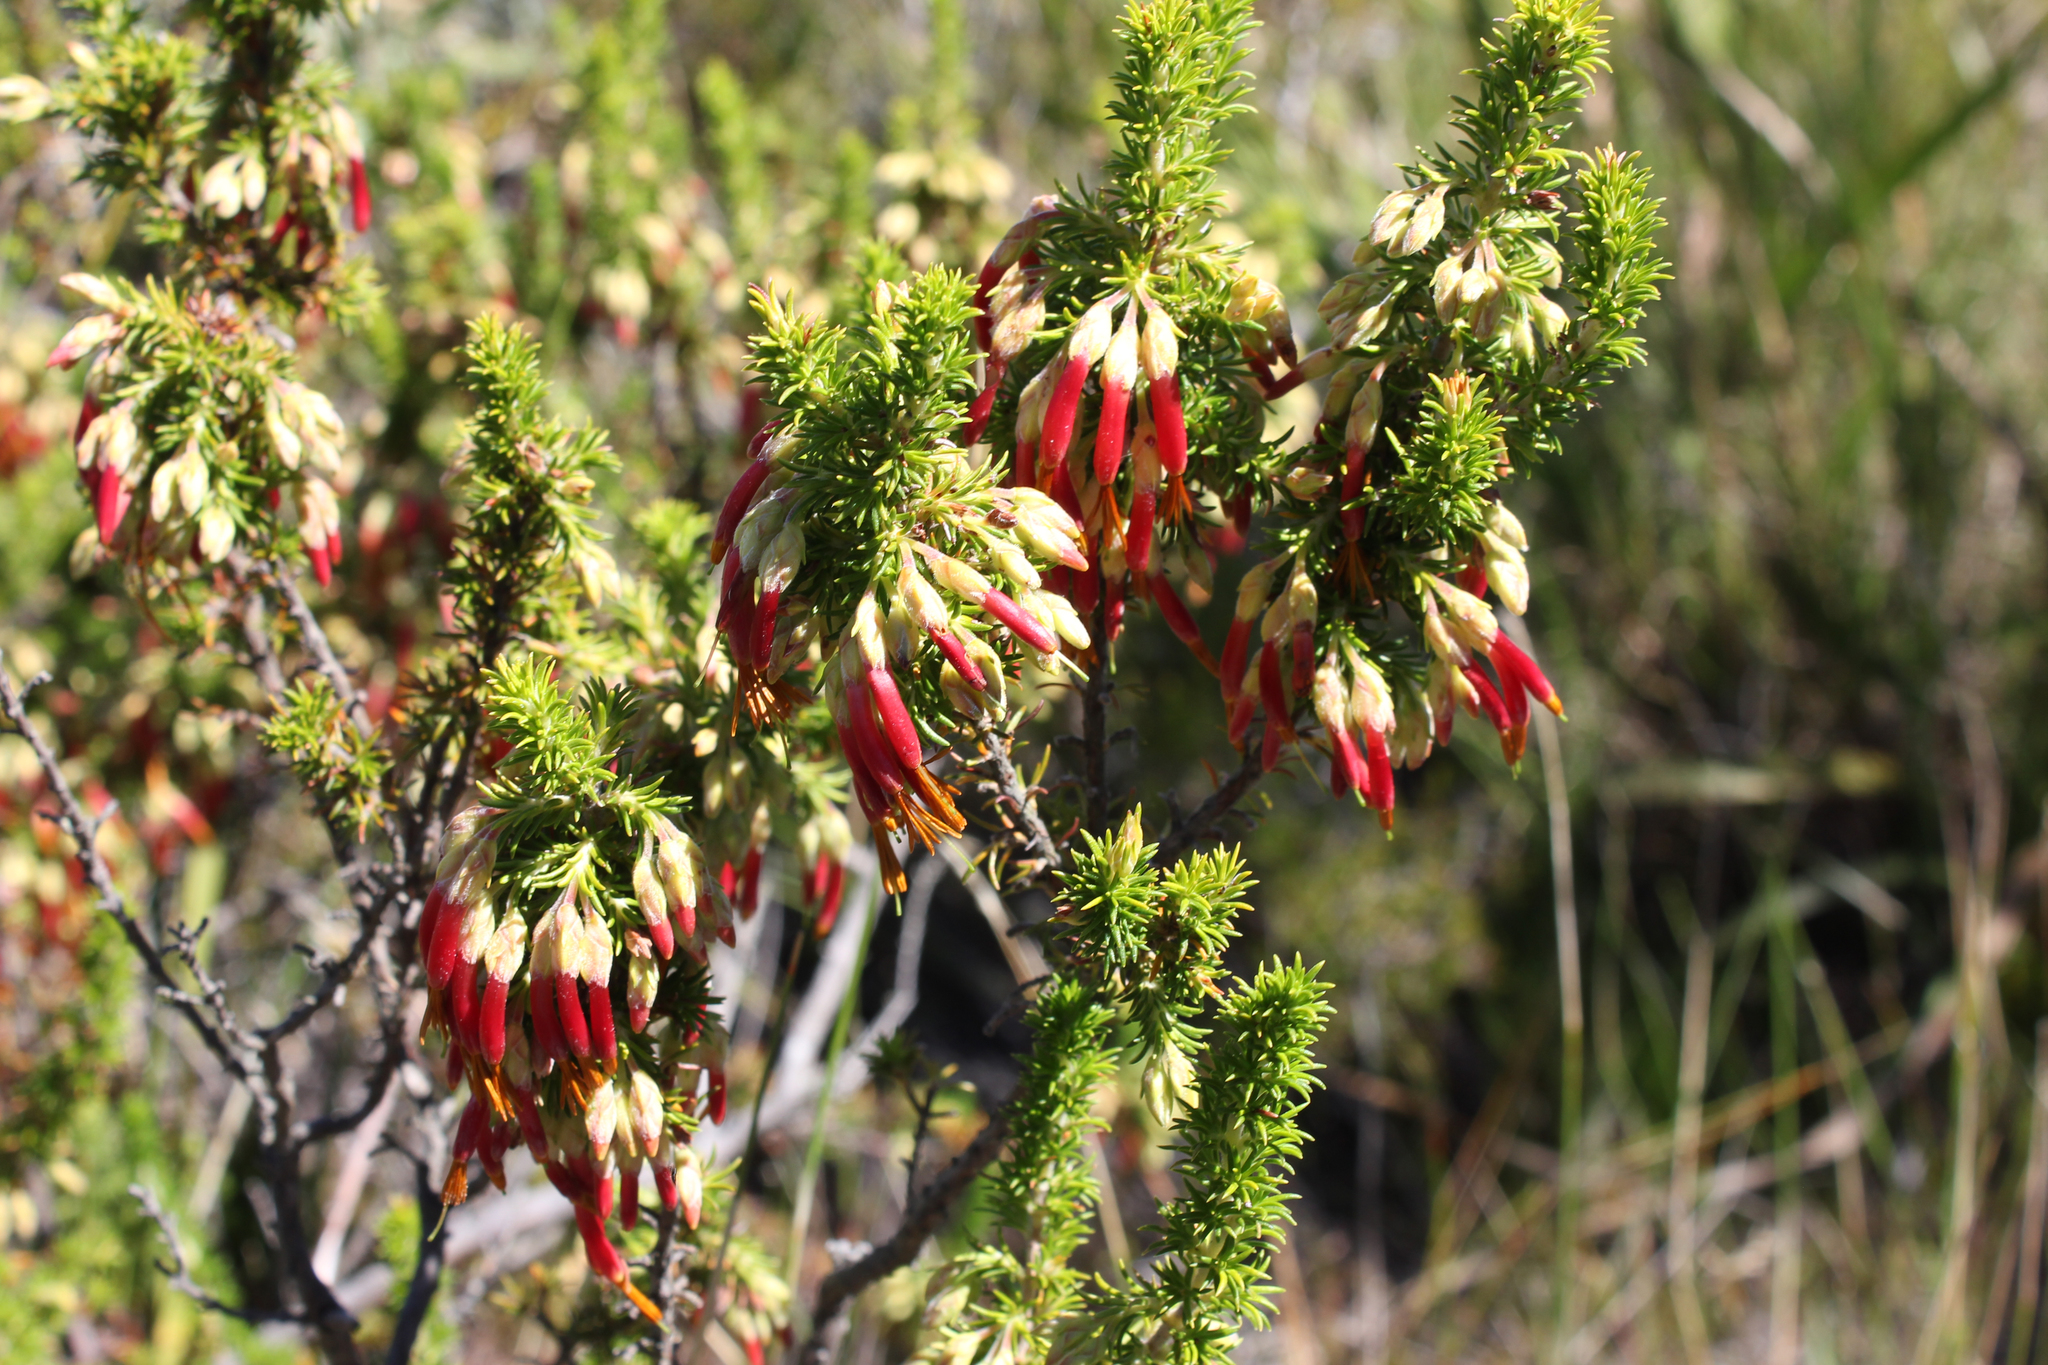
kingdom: Plantae
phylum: Tracheophyta
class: Magnoliopsida
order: Ericales
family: Ericaceae
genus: Erica
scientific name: Erica coccinea
